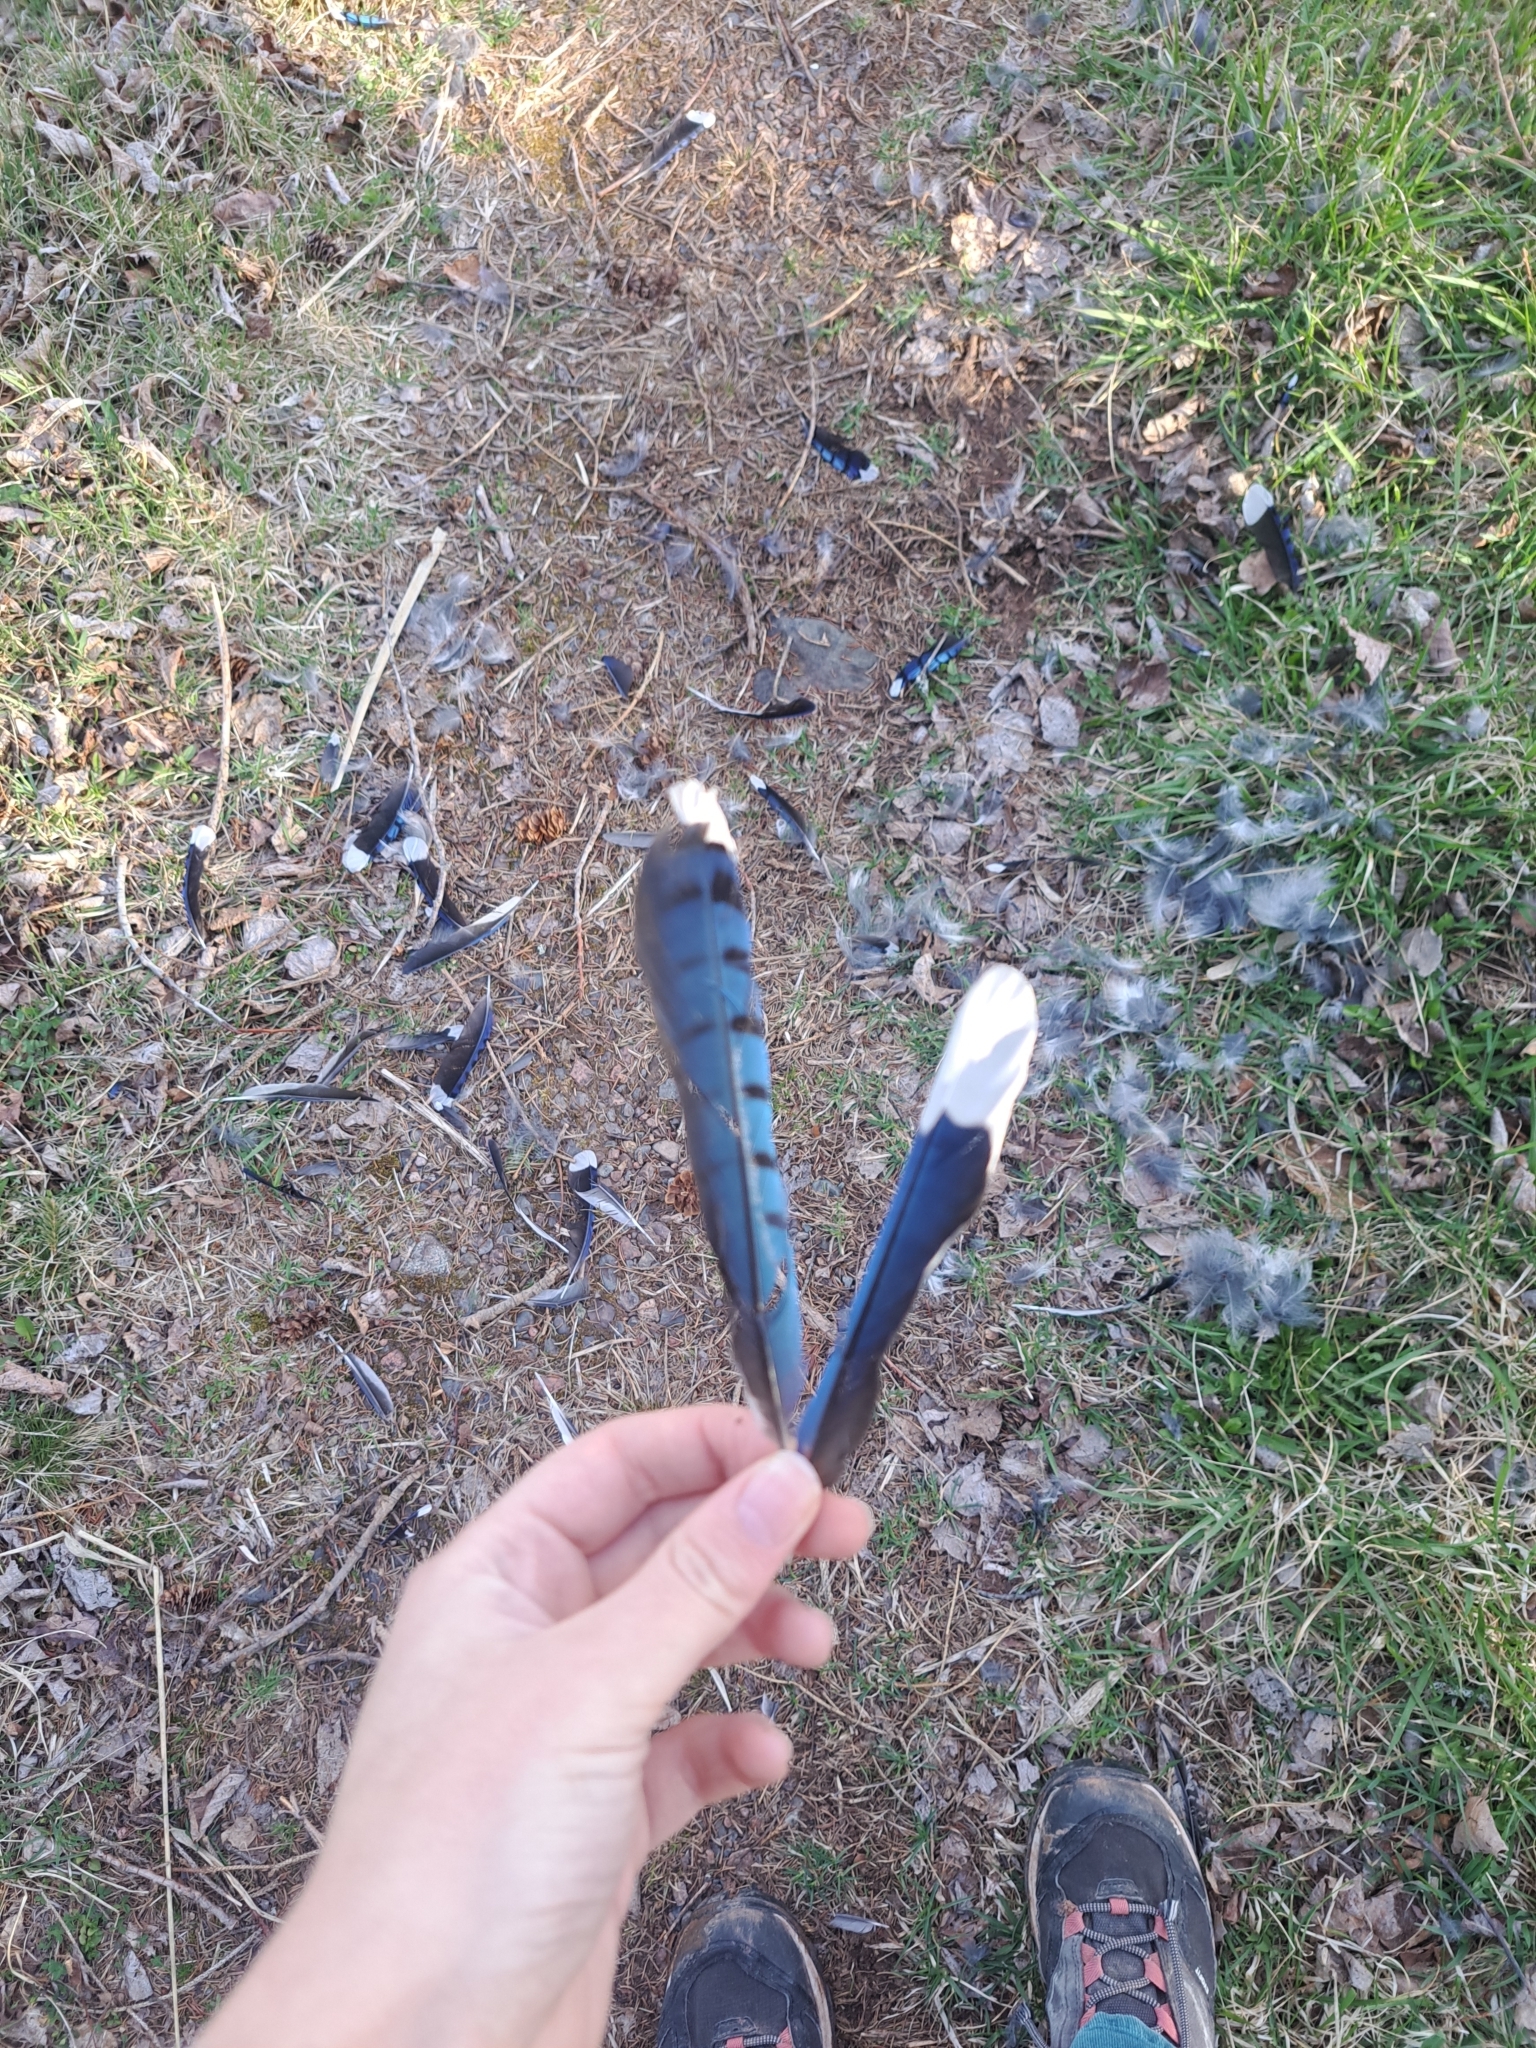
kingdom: Animalia
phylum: Chordata
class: Aves
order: Passeriformes
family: Corvidae
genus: Cyanocitta
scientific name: Cyanocitta cristata
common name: Blue jay
